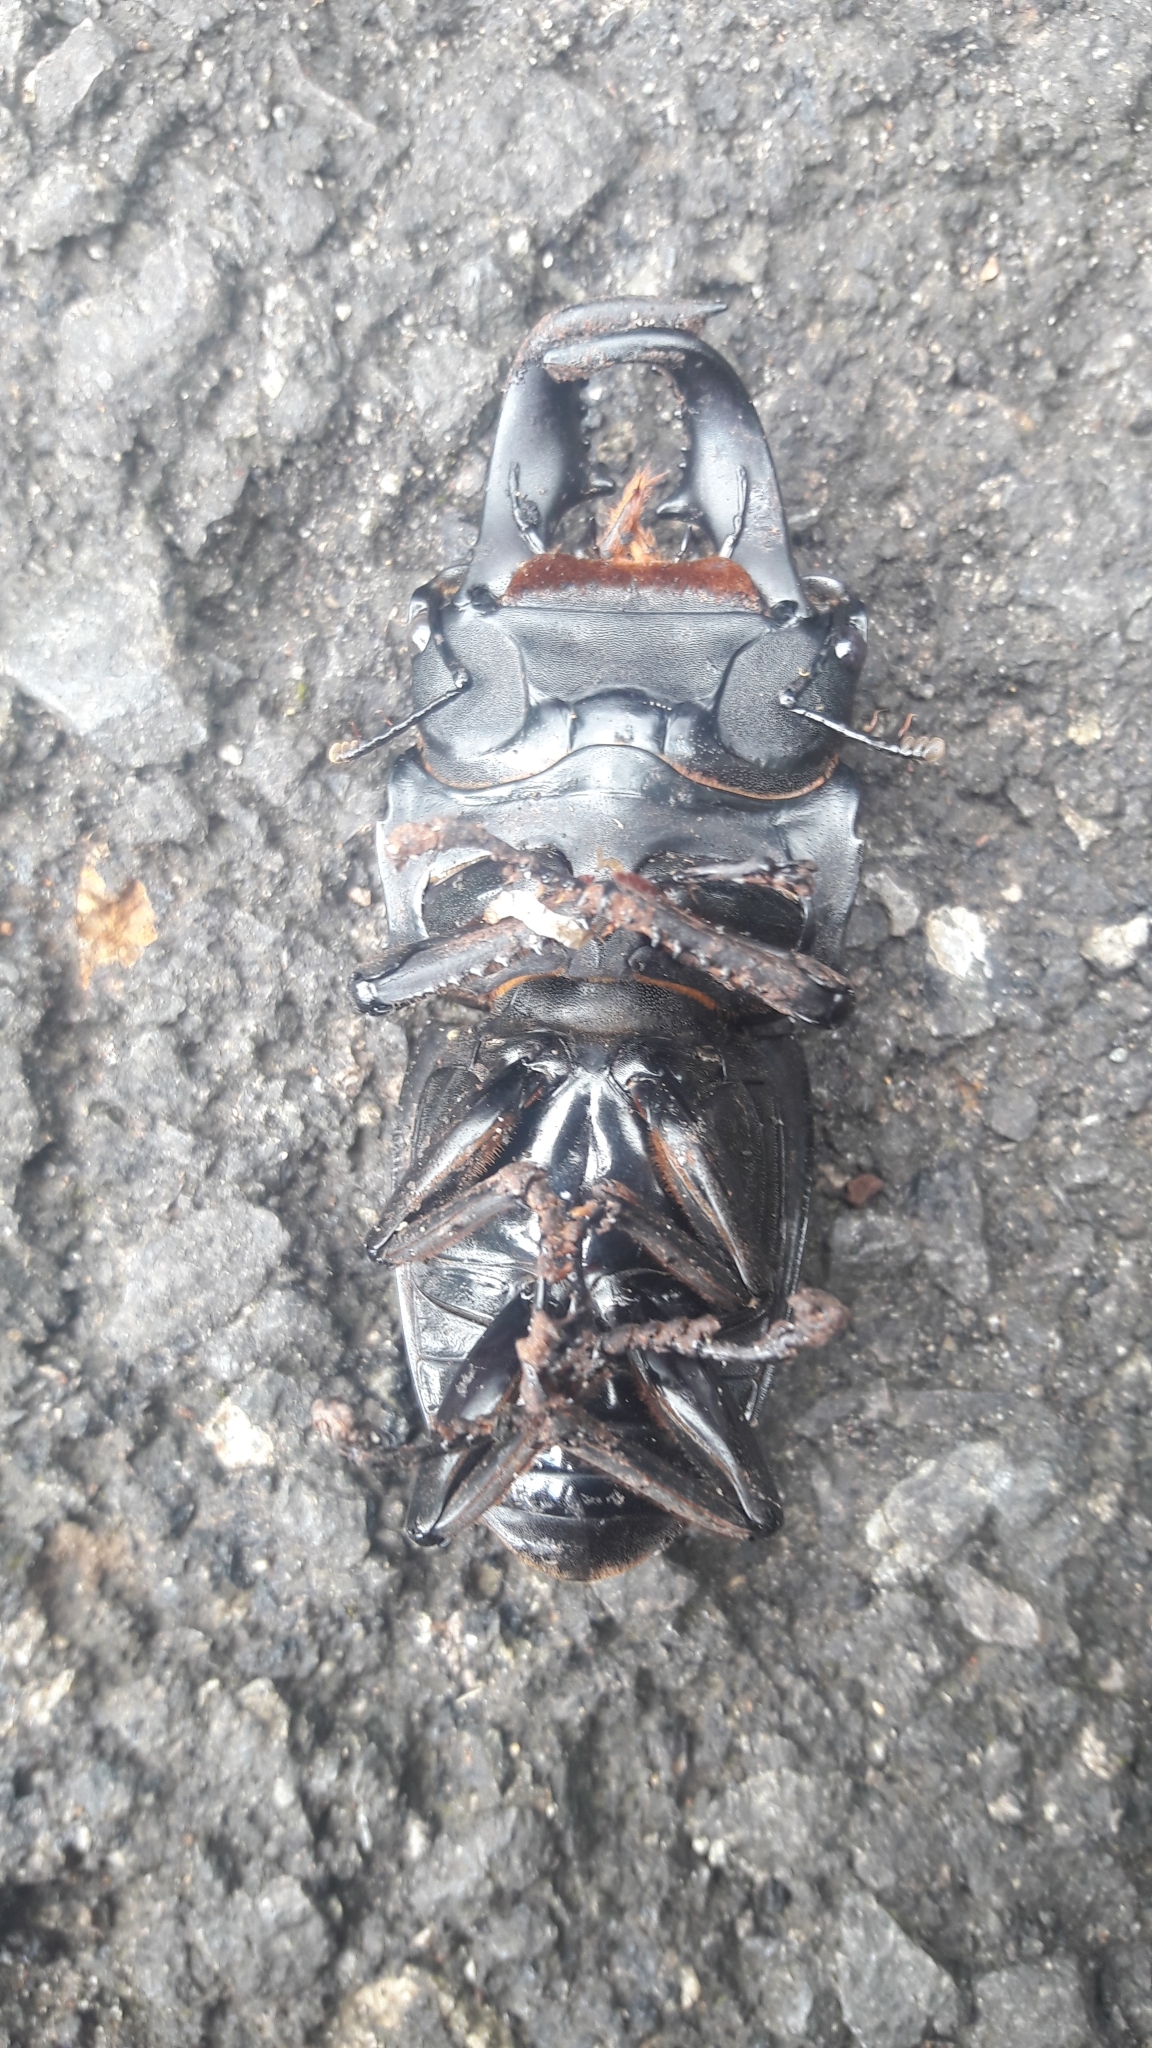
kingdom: Animalia
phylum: Arthropoda
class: Insecta
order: Coleoptera
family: Lucanidae
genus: Serrognathus
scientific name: Serrognathus bucephalus
